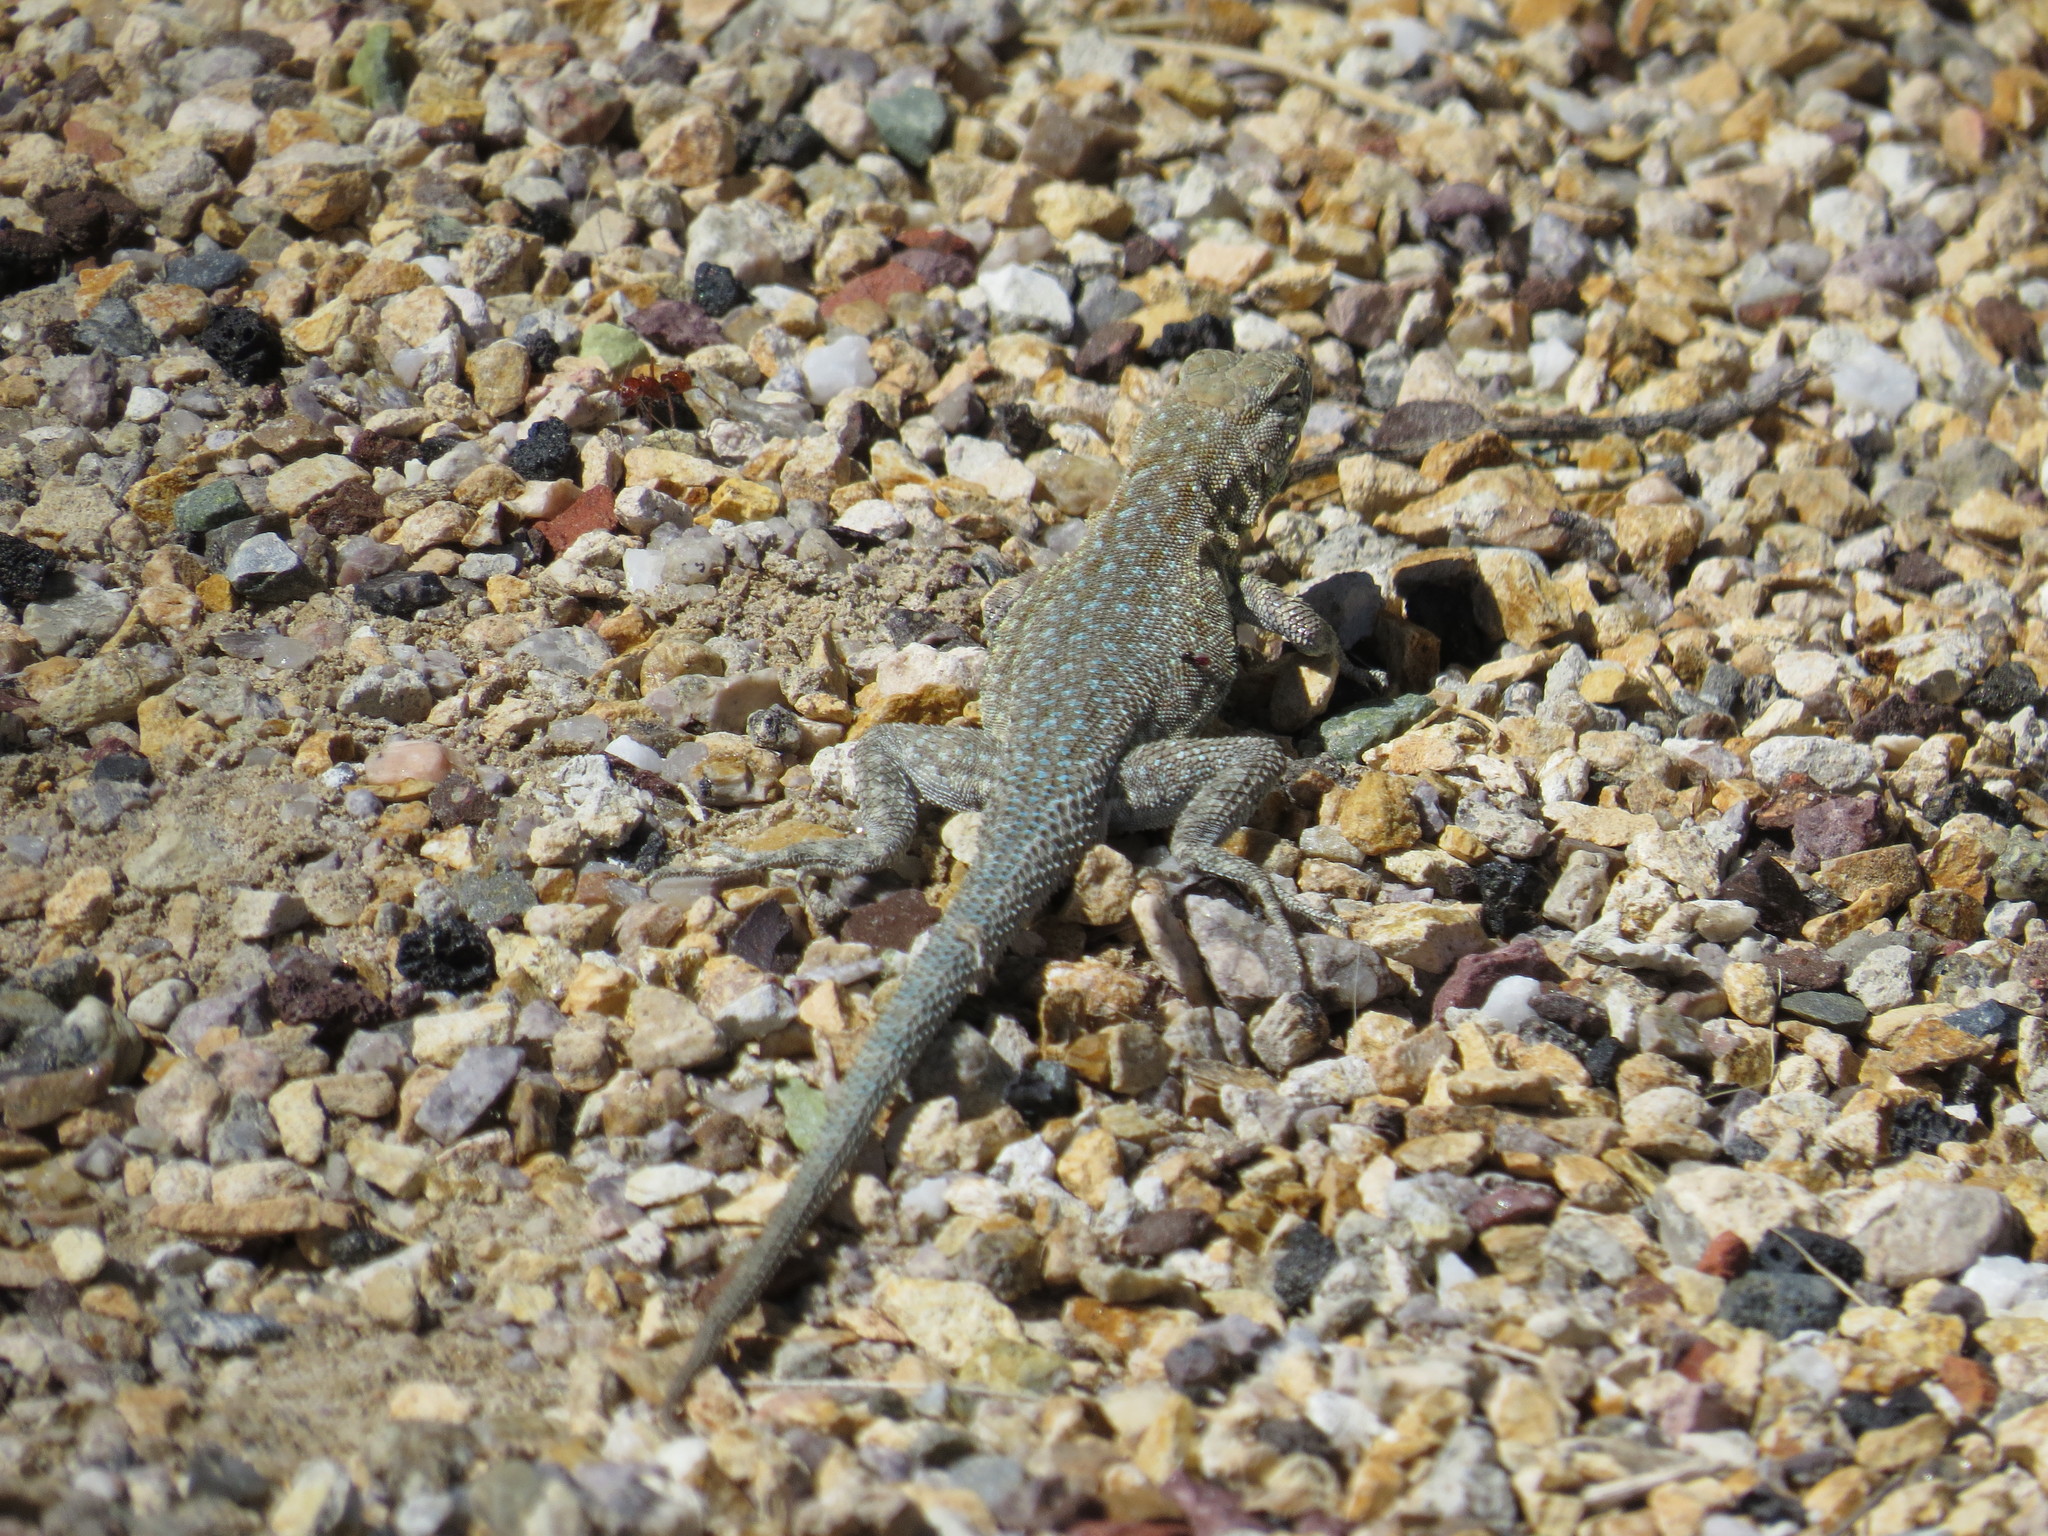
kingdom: Animalia
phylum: Chordata
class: Squamata
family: Phrynosomatidae
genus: Uta
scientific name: Uta stansburiana
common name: Side-blotched lizard
